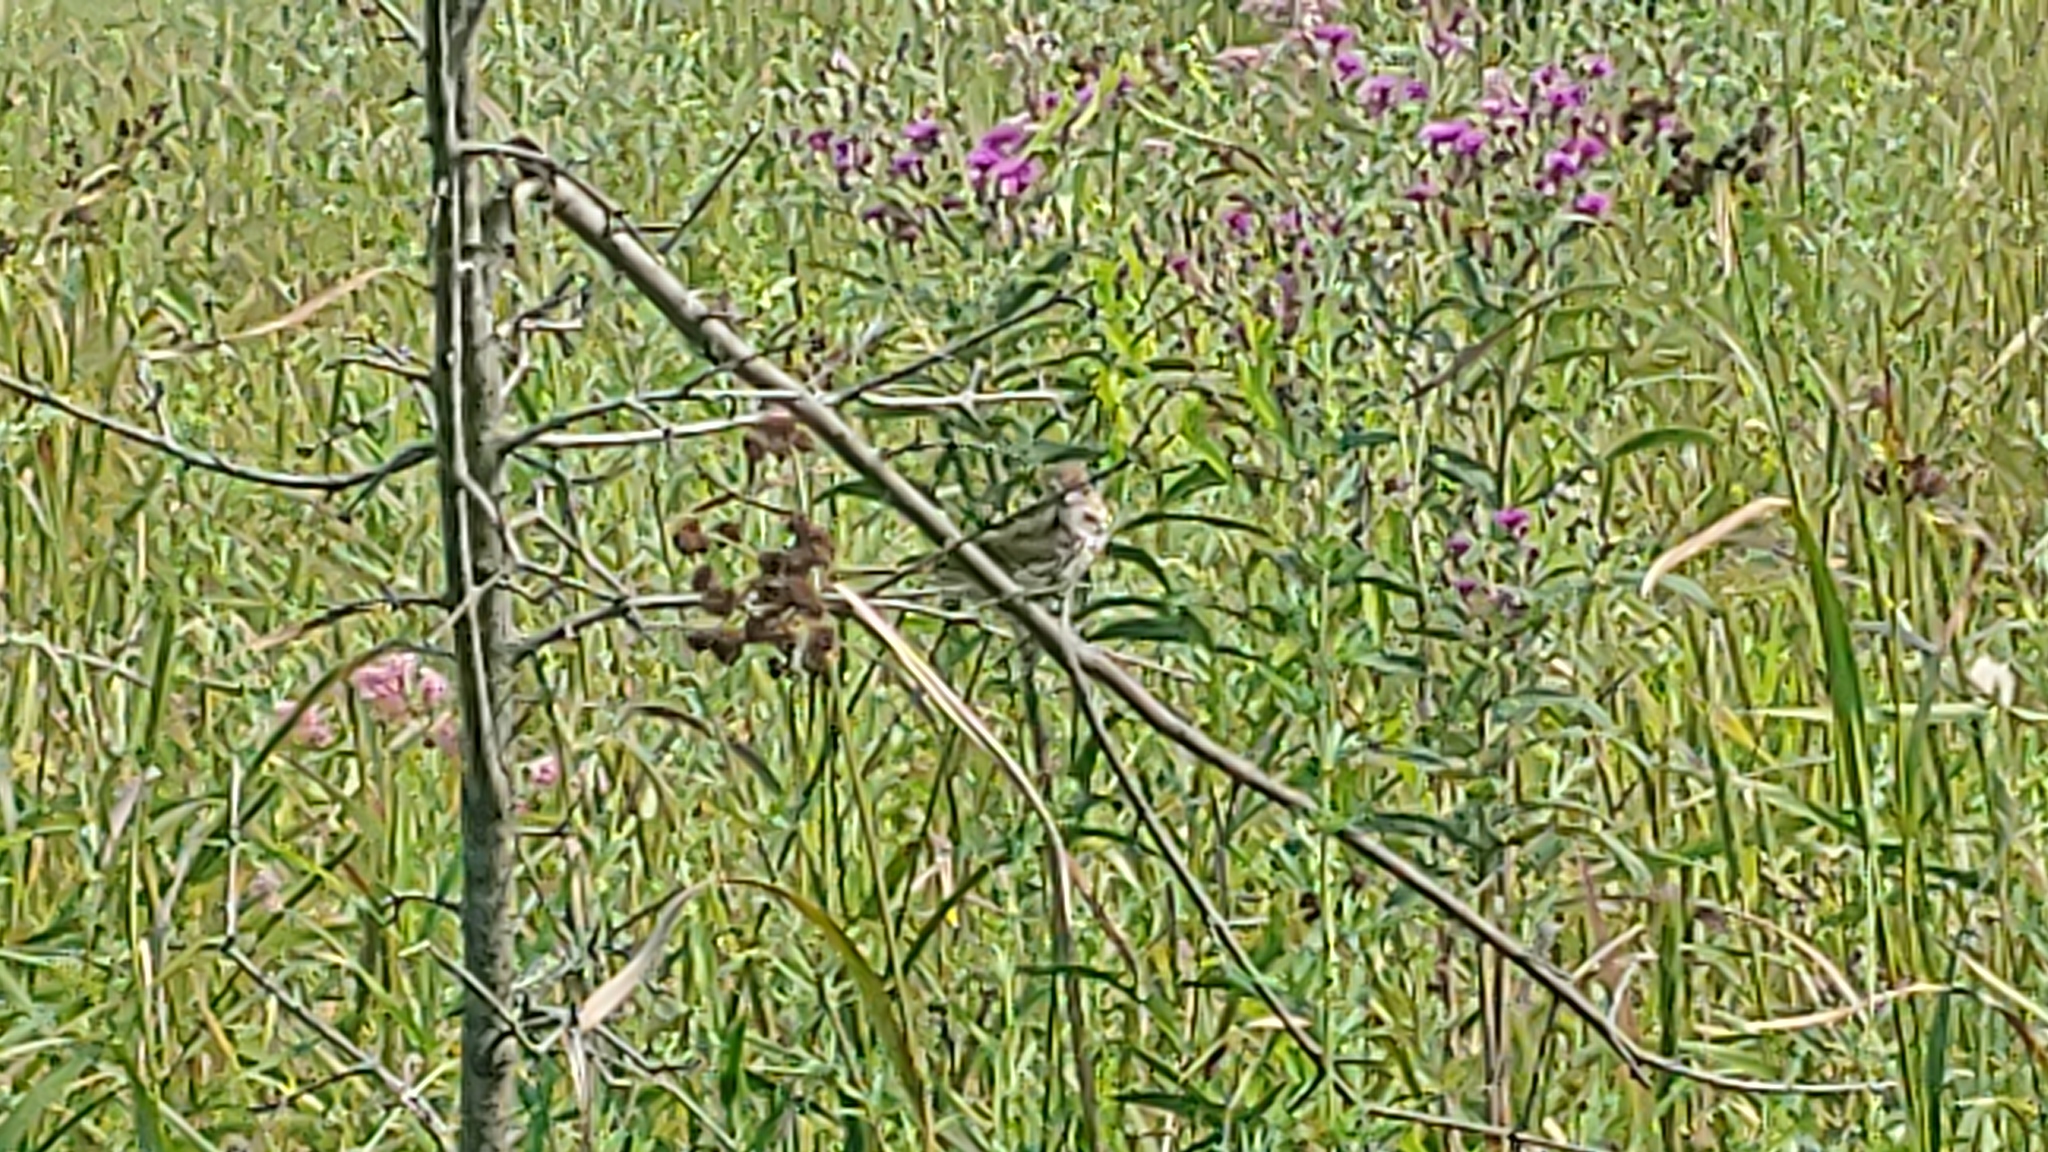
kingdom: Animalia
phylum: Chordata
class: Aves
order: Passeriformes
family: Passerellidae
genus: Melospiza
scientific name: Melospiza melodia
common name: Song sparrow
